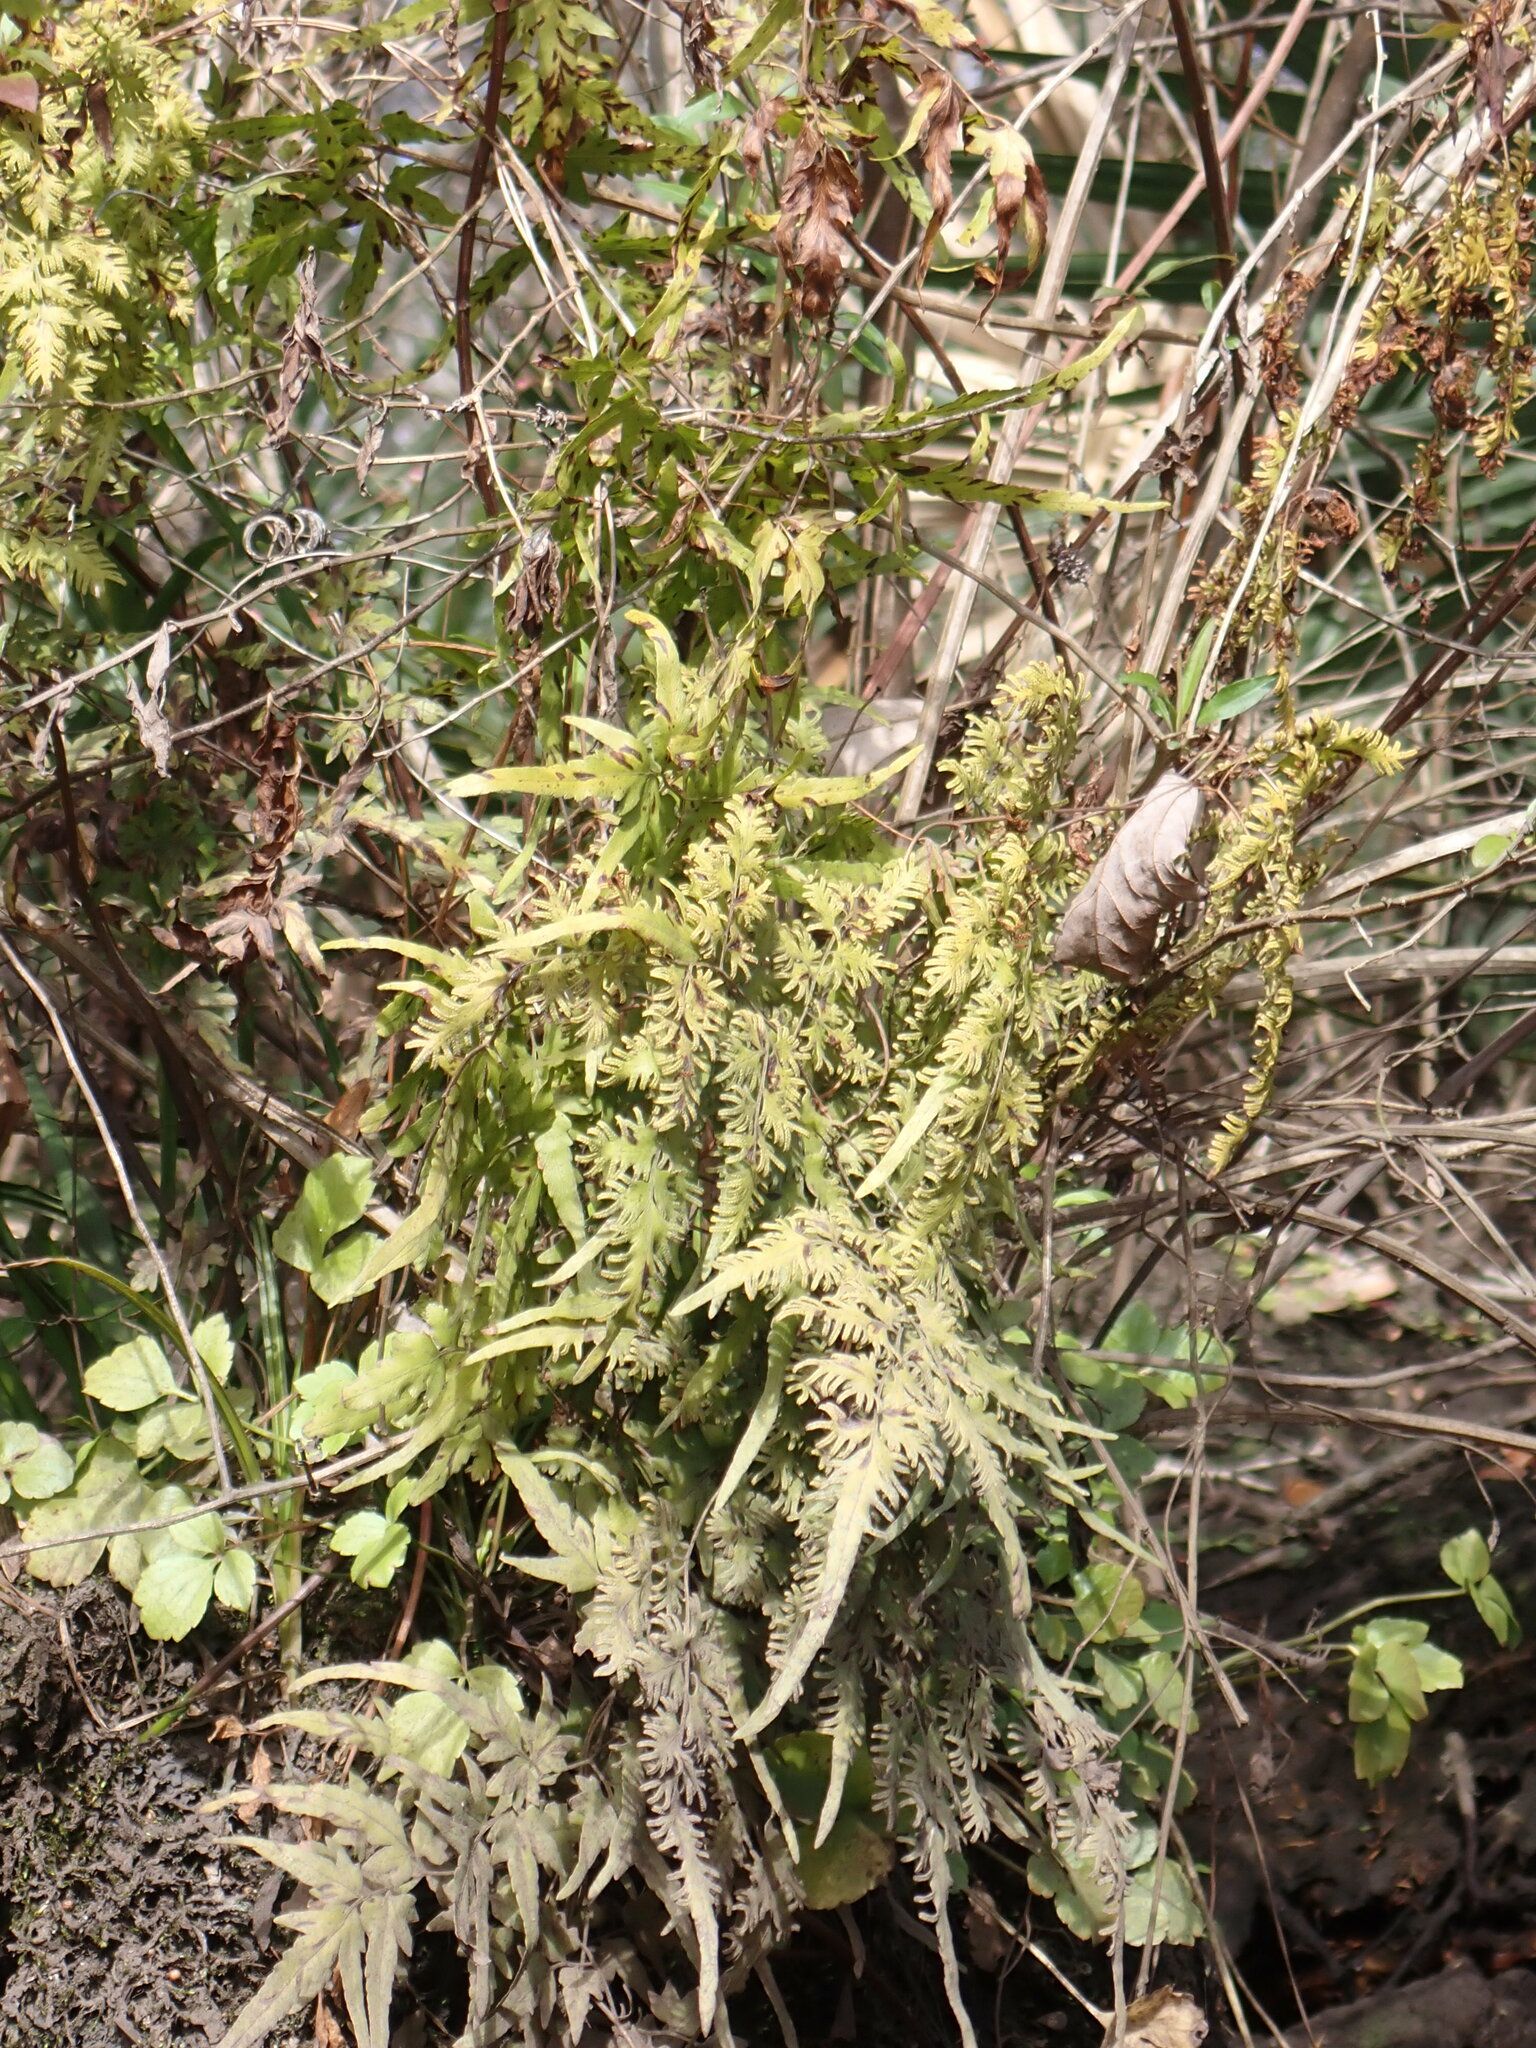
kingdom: Plantae
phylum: Tracheophyta
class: Polypodiopsida
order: Schizaeales
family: Lygodiaceae
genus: Lygodium
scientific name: Lygodium japonicum
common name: Japanese climbing fern
